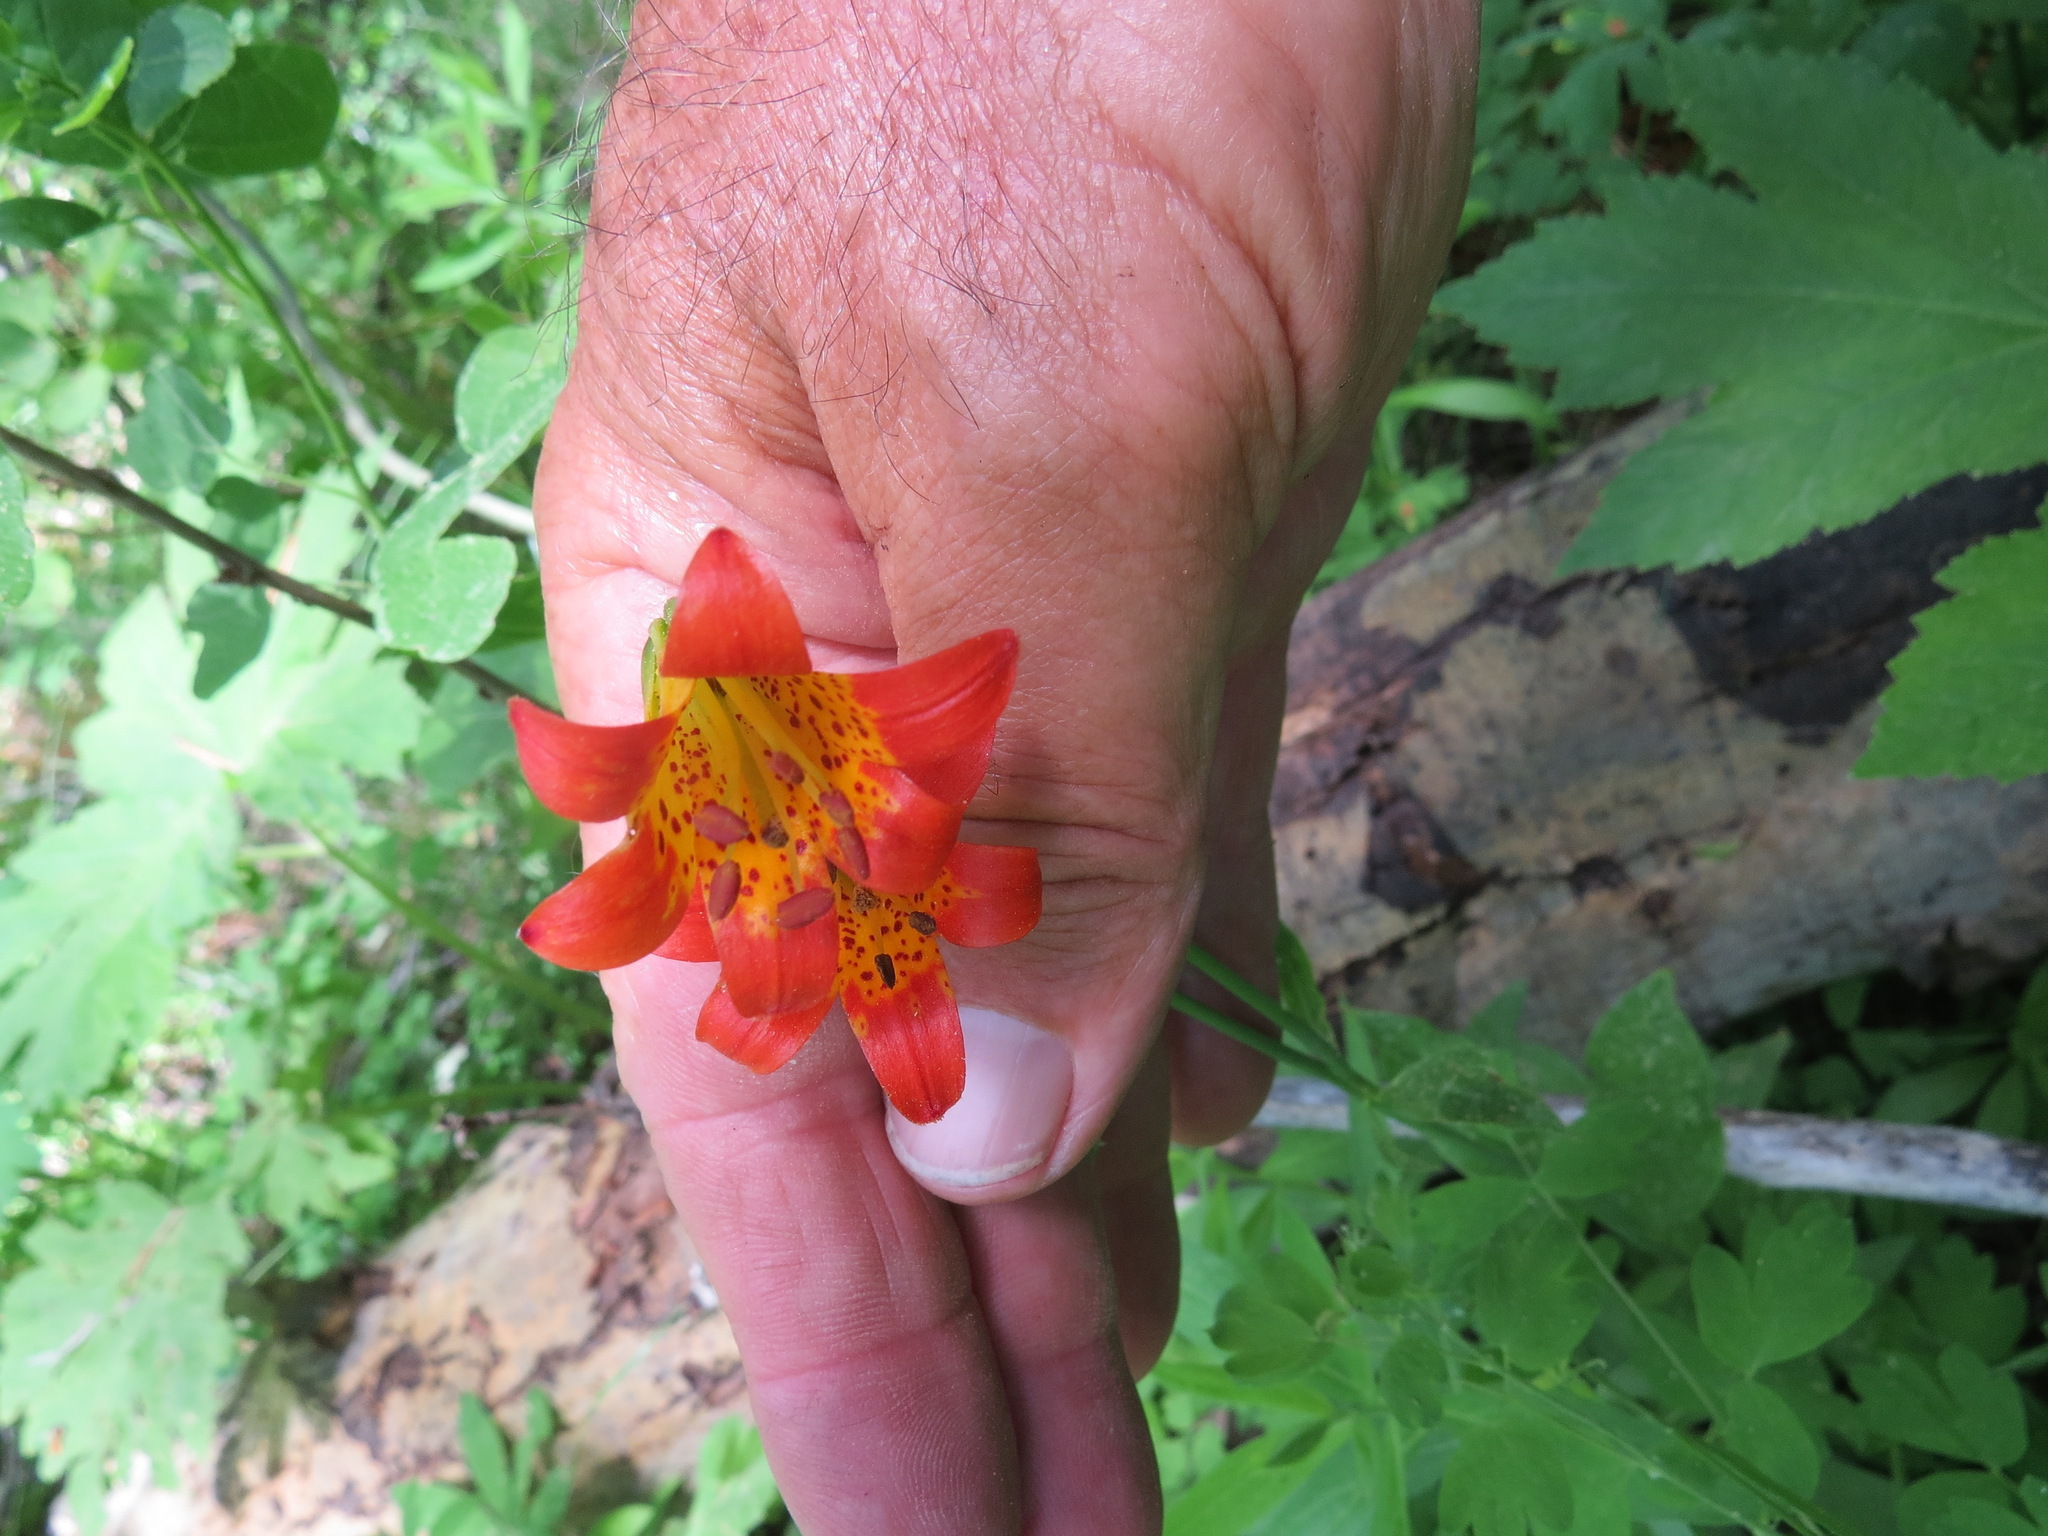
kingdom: Plantae
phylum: Tracheophyta
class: Liliopsida
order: Liliales
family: Liliaceae
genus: Lilium
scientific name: Lilium parvum
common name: Alpine lily
